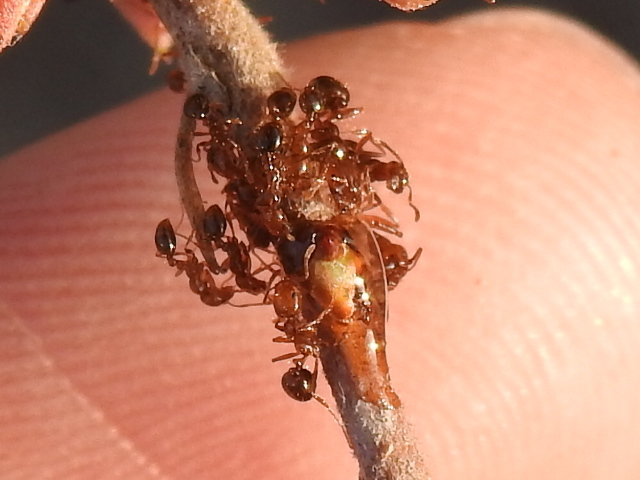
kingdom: Animalia
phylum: Arthropoda
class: Insecta
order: Hymenoptera
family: Formicidae
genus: Solenopsis
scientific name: Solenopsis invicta
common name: Red imported fire ant
